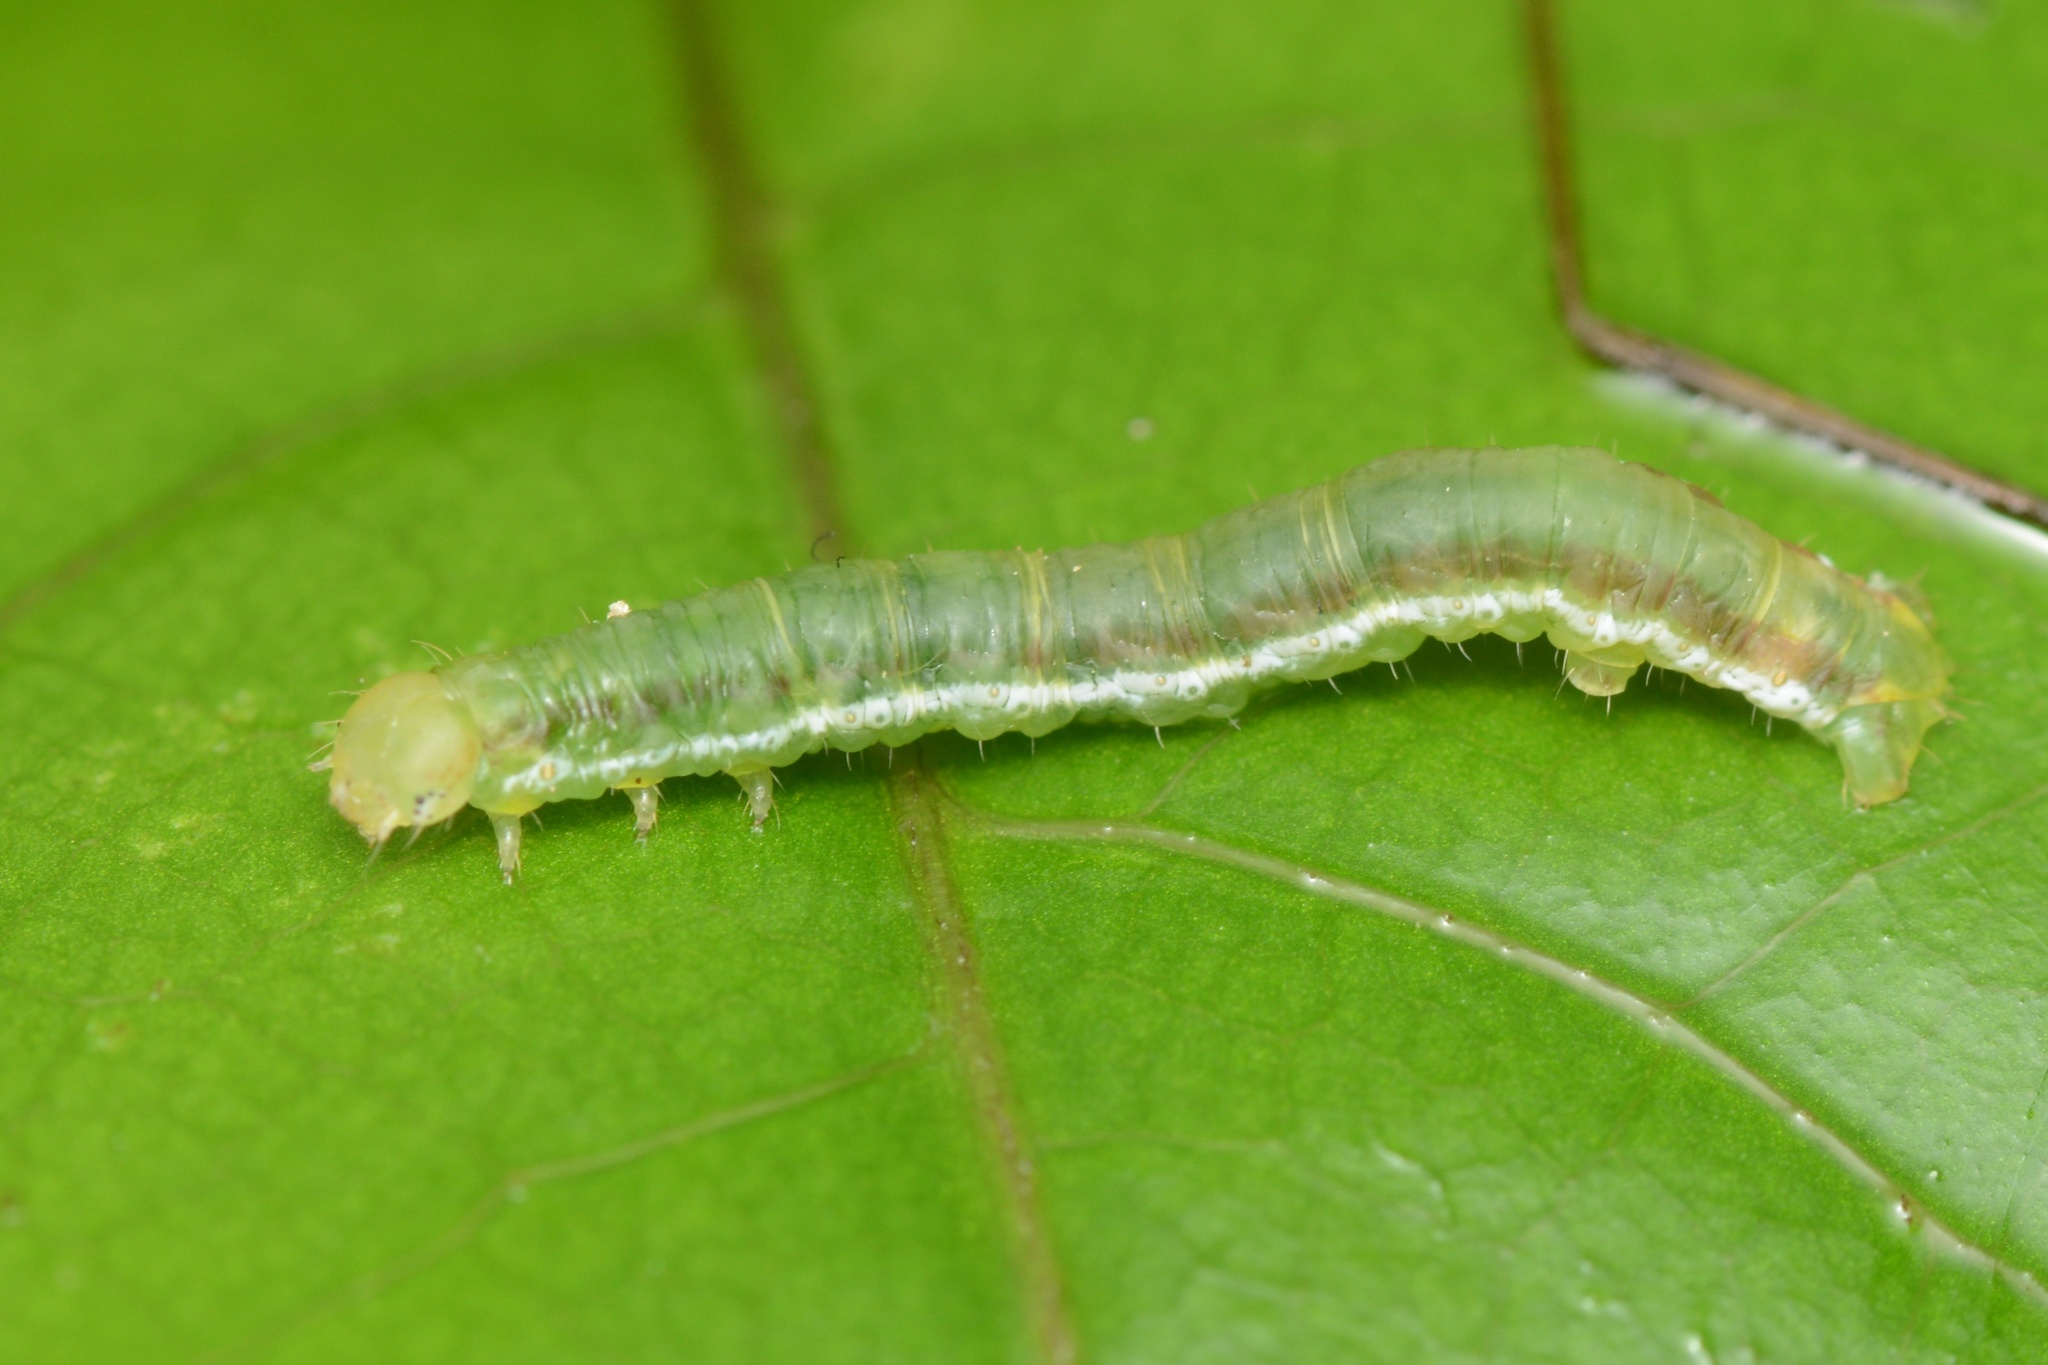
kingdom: Animalia
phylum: Arthropoda
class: Insecta
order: Lepidoptera
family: Geometridae
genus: Cleora
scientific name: Cleora scriptaria
